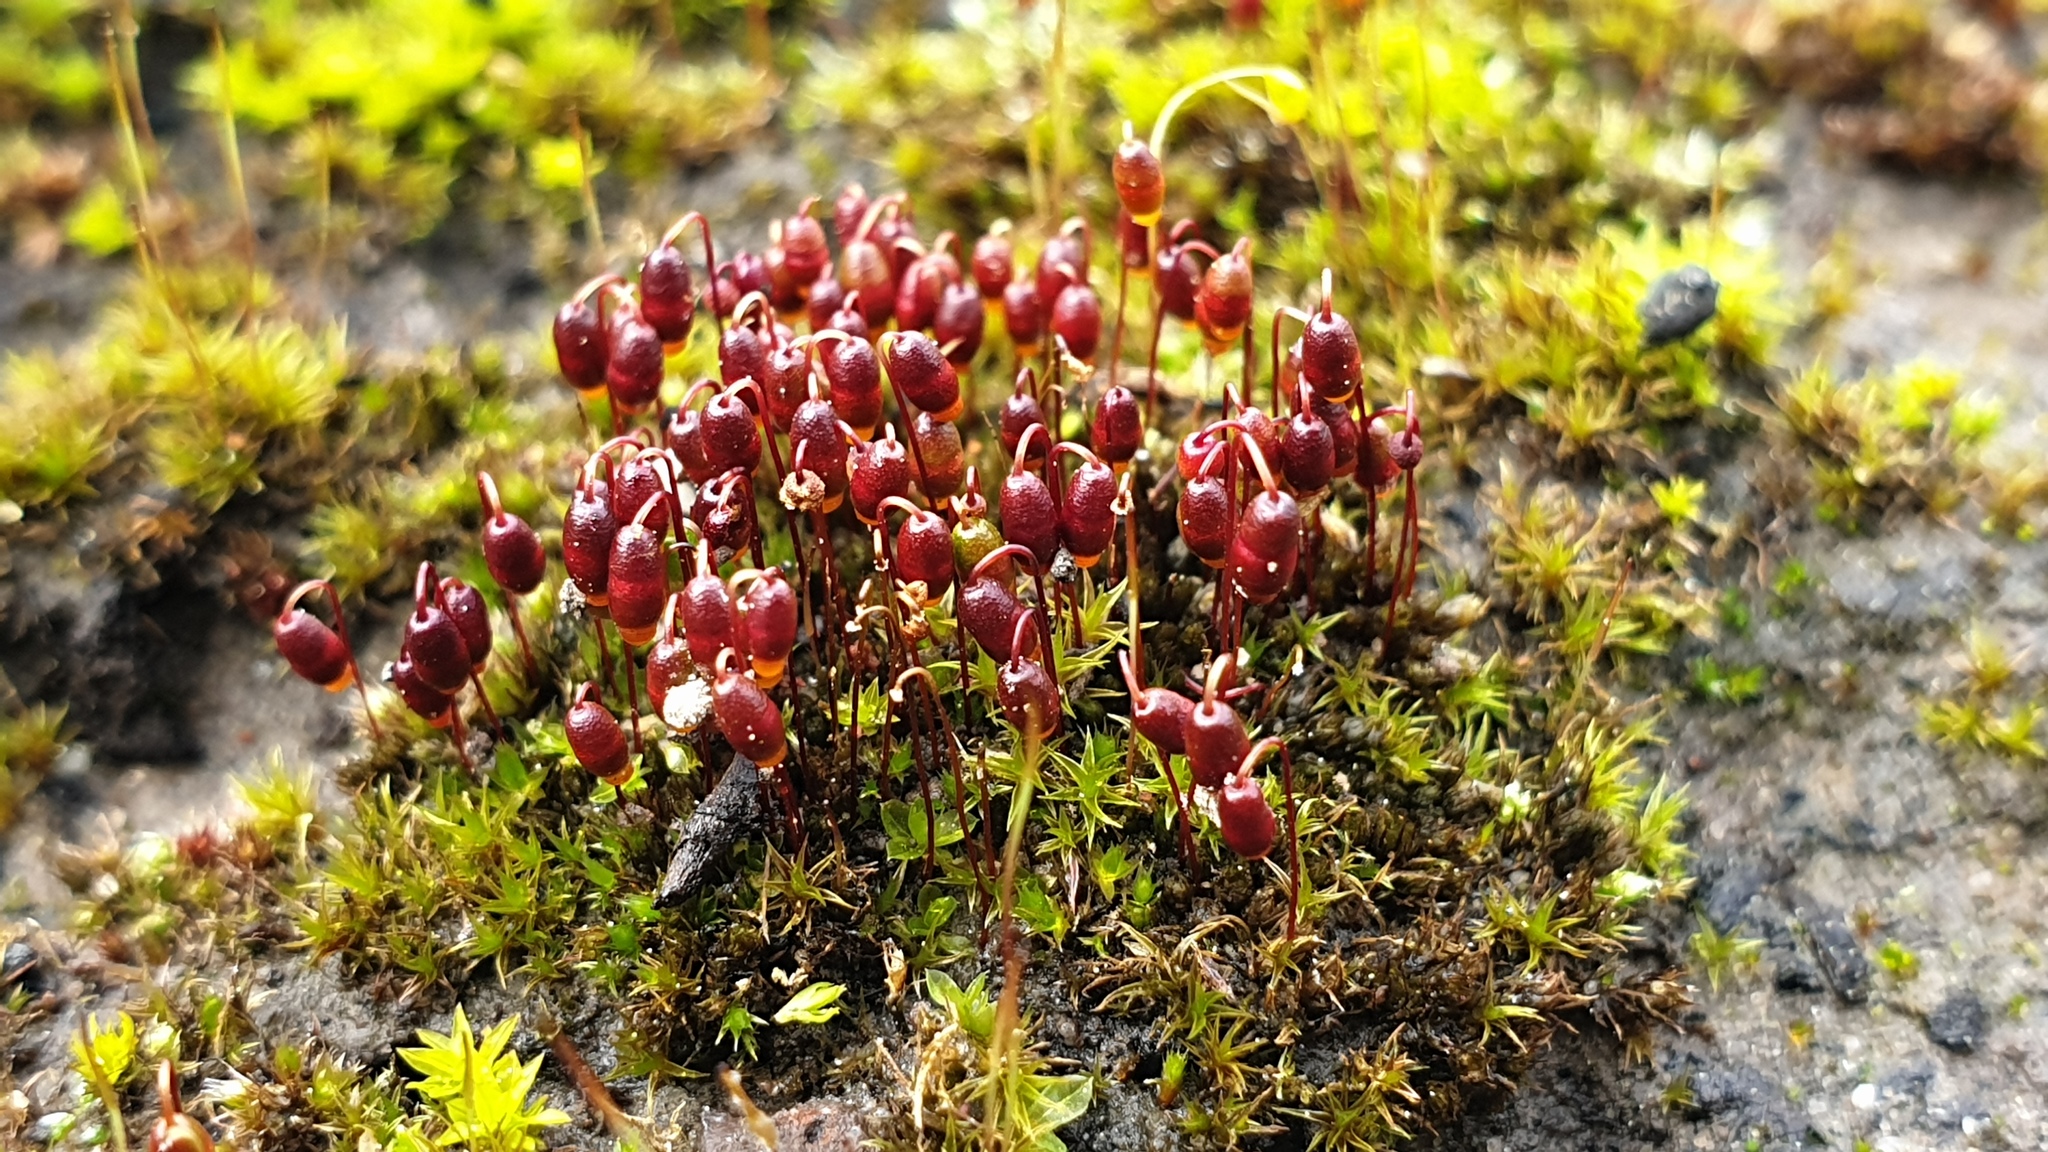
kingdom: Plantae
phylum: Bryophyta
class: Bryopsida
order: Bryales
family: Bryaceae
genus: Gemmabryum
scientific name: Gemmabryum coronatum
